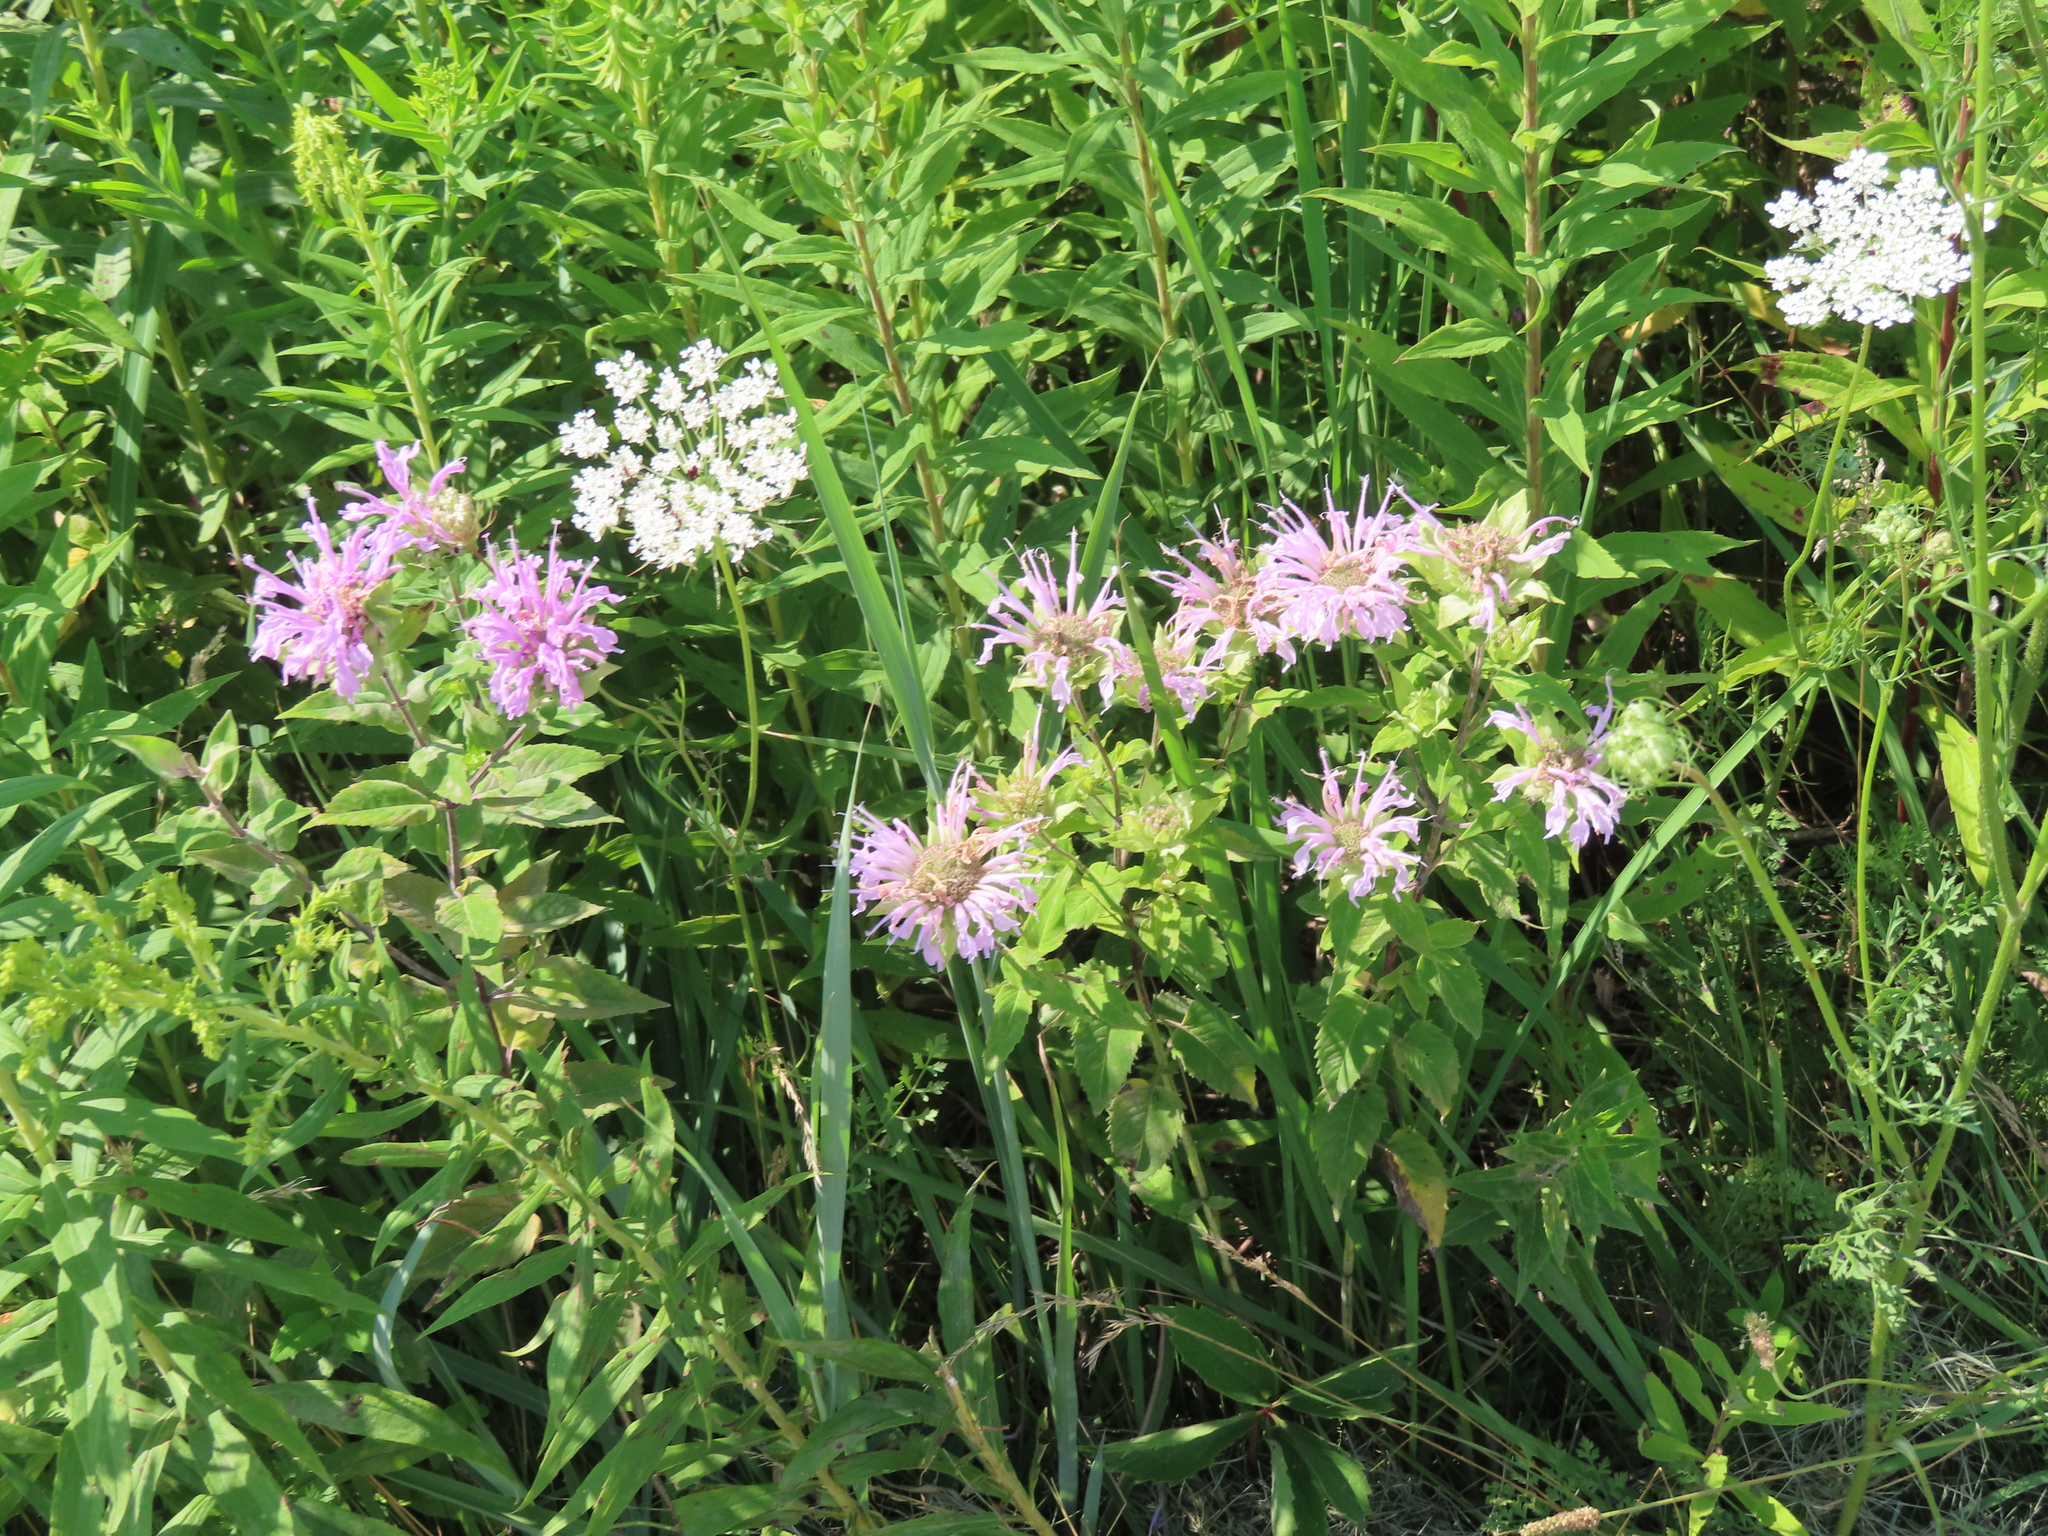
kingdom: Plantae
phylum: Tracheophyta
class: Magnoliopsida
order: Lamiales
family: Lamiaceae
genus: Monarda
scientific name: Monarda fistulosa
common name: Purple beebalm
